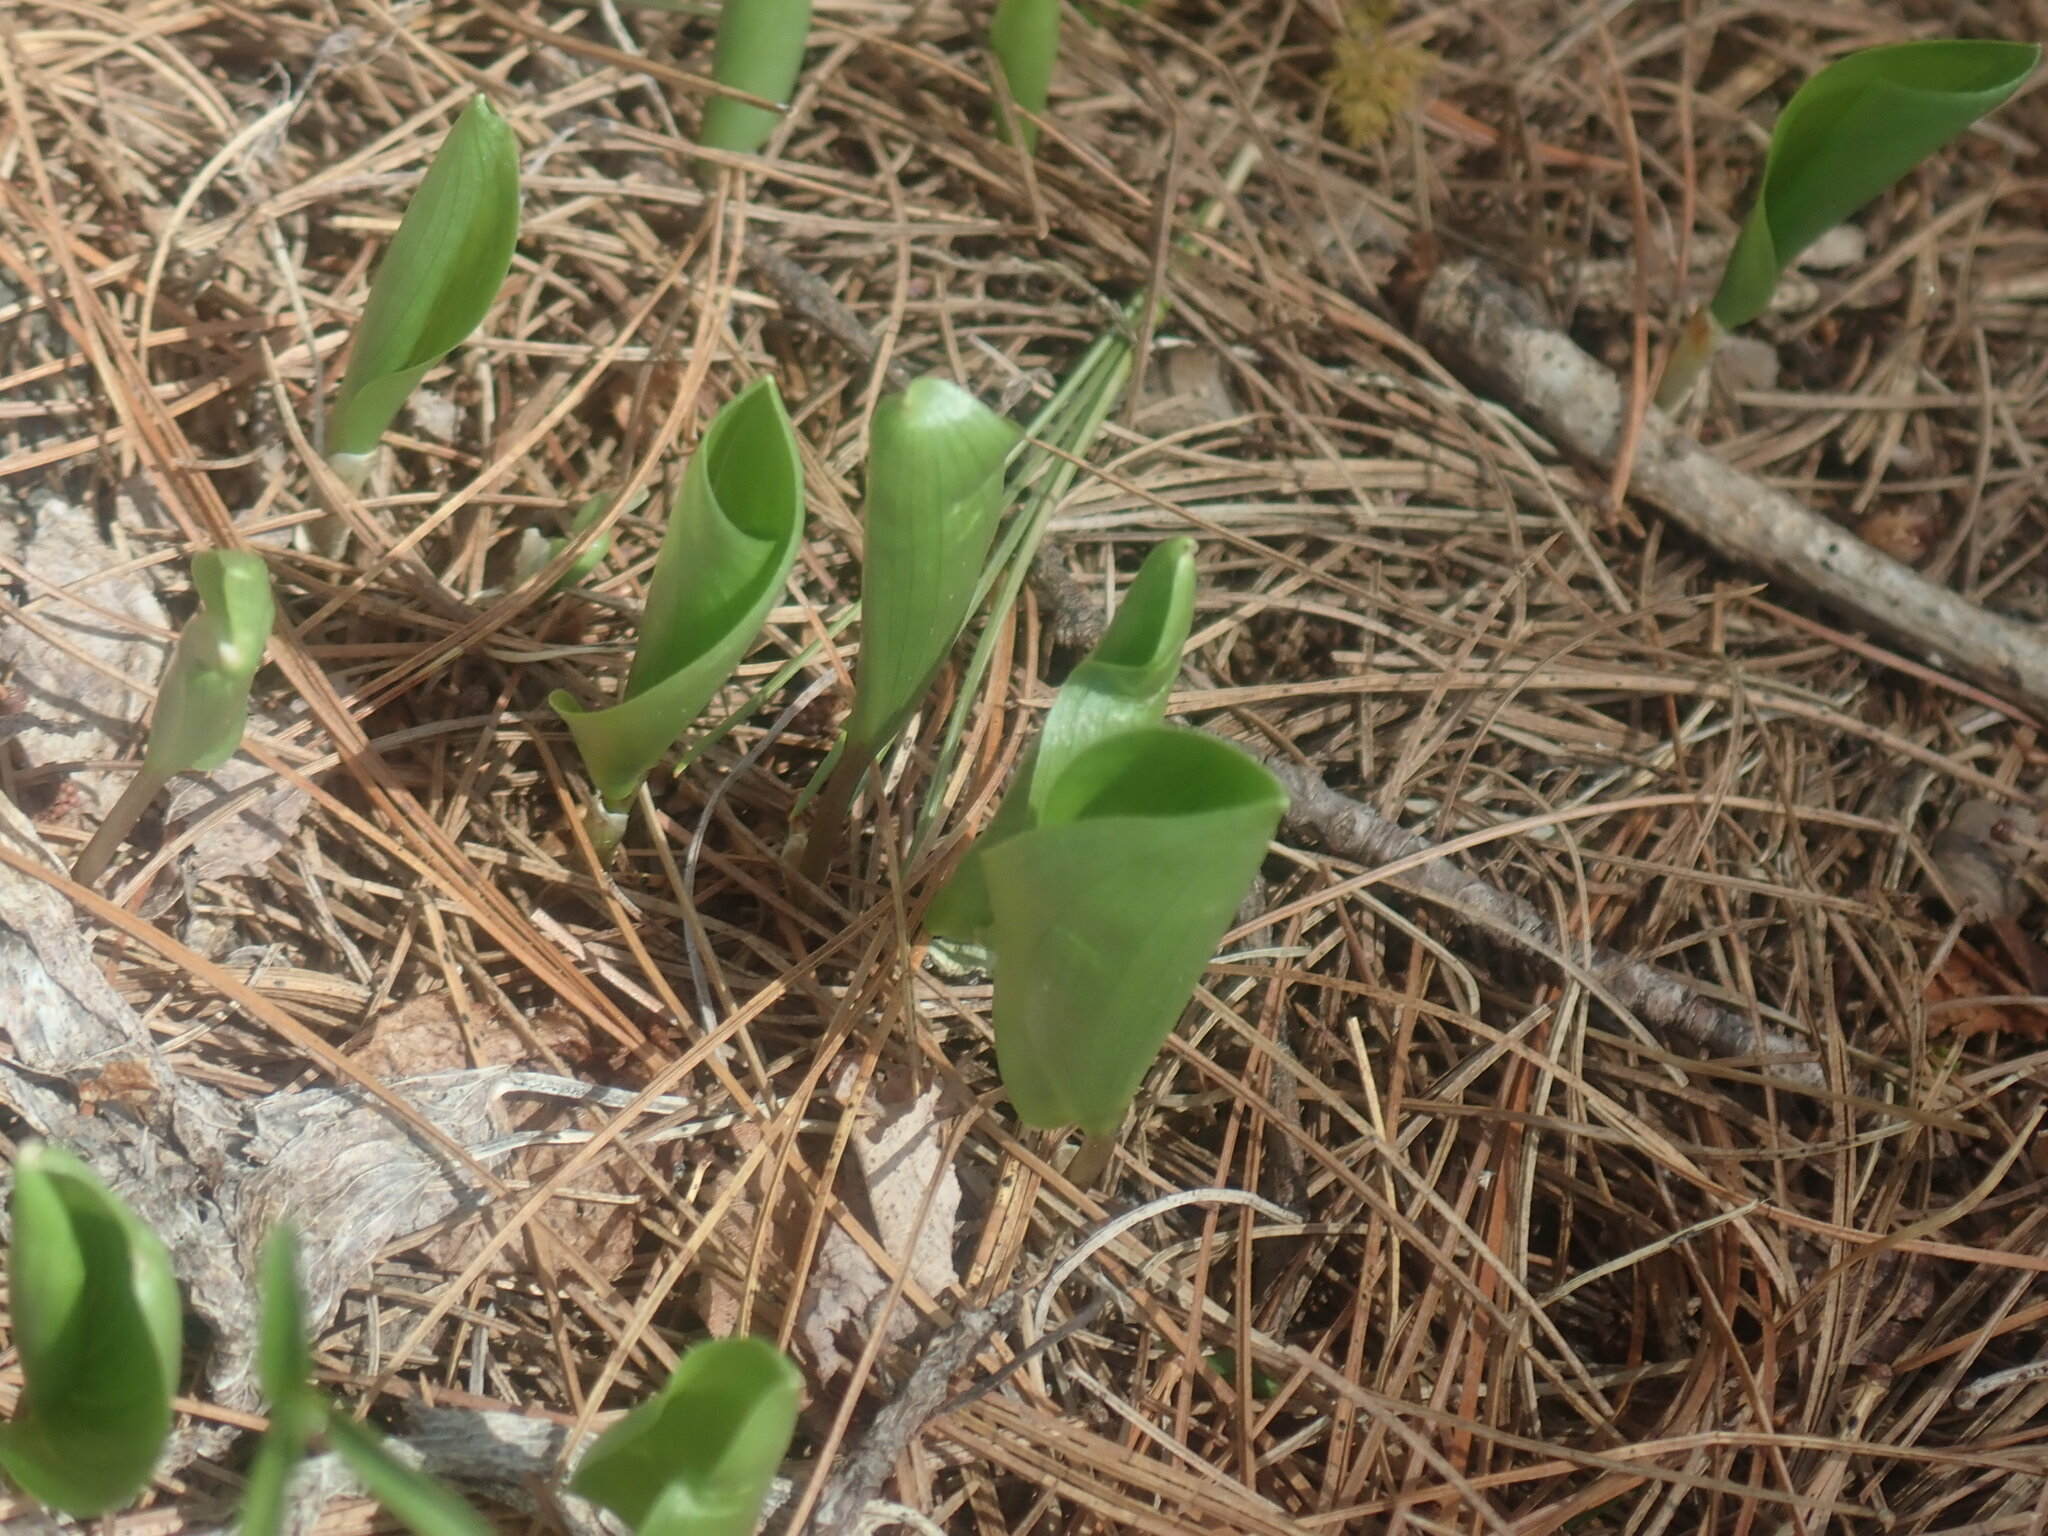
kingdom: Plantae
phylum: Tracheophyta
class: Liliopsida
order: Asparagales
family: Asparagaceae
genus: Maianthemum
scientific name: Maianthemum canadense
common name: False lily-of-the-valley
